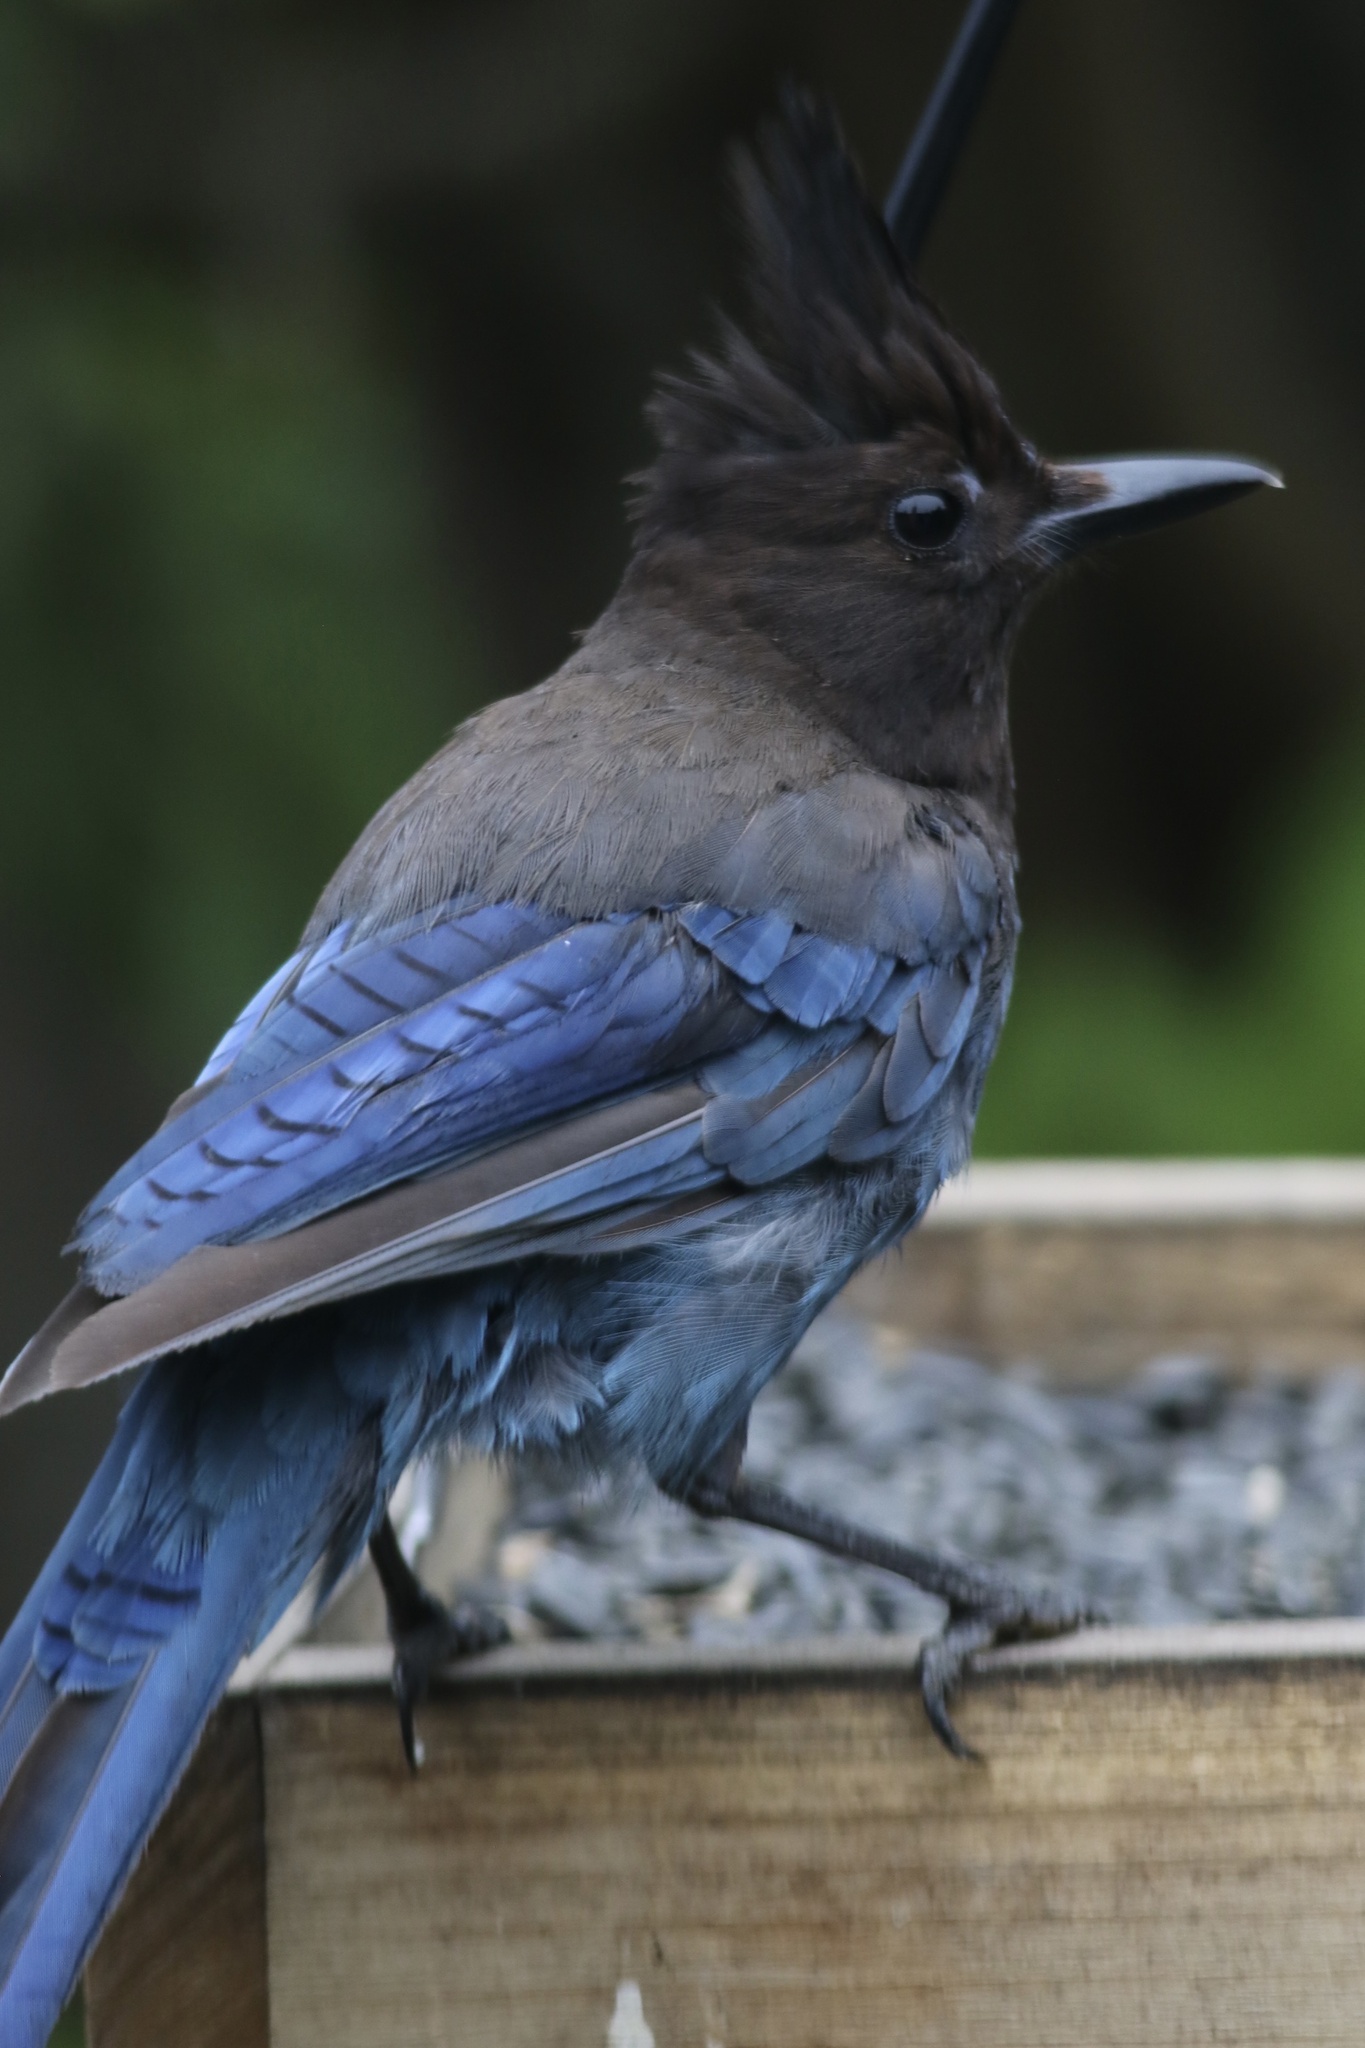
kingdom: Animalia
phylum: Chordata
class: Aves
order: Passeriformes
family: Corvidae
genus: Cyanocitta
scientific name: Cyanocitta stelleri
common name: Steller's jay
